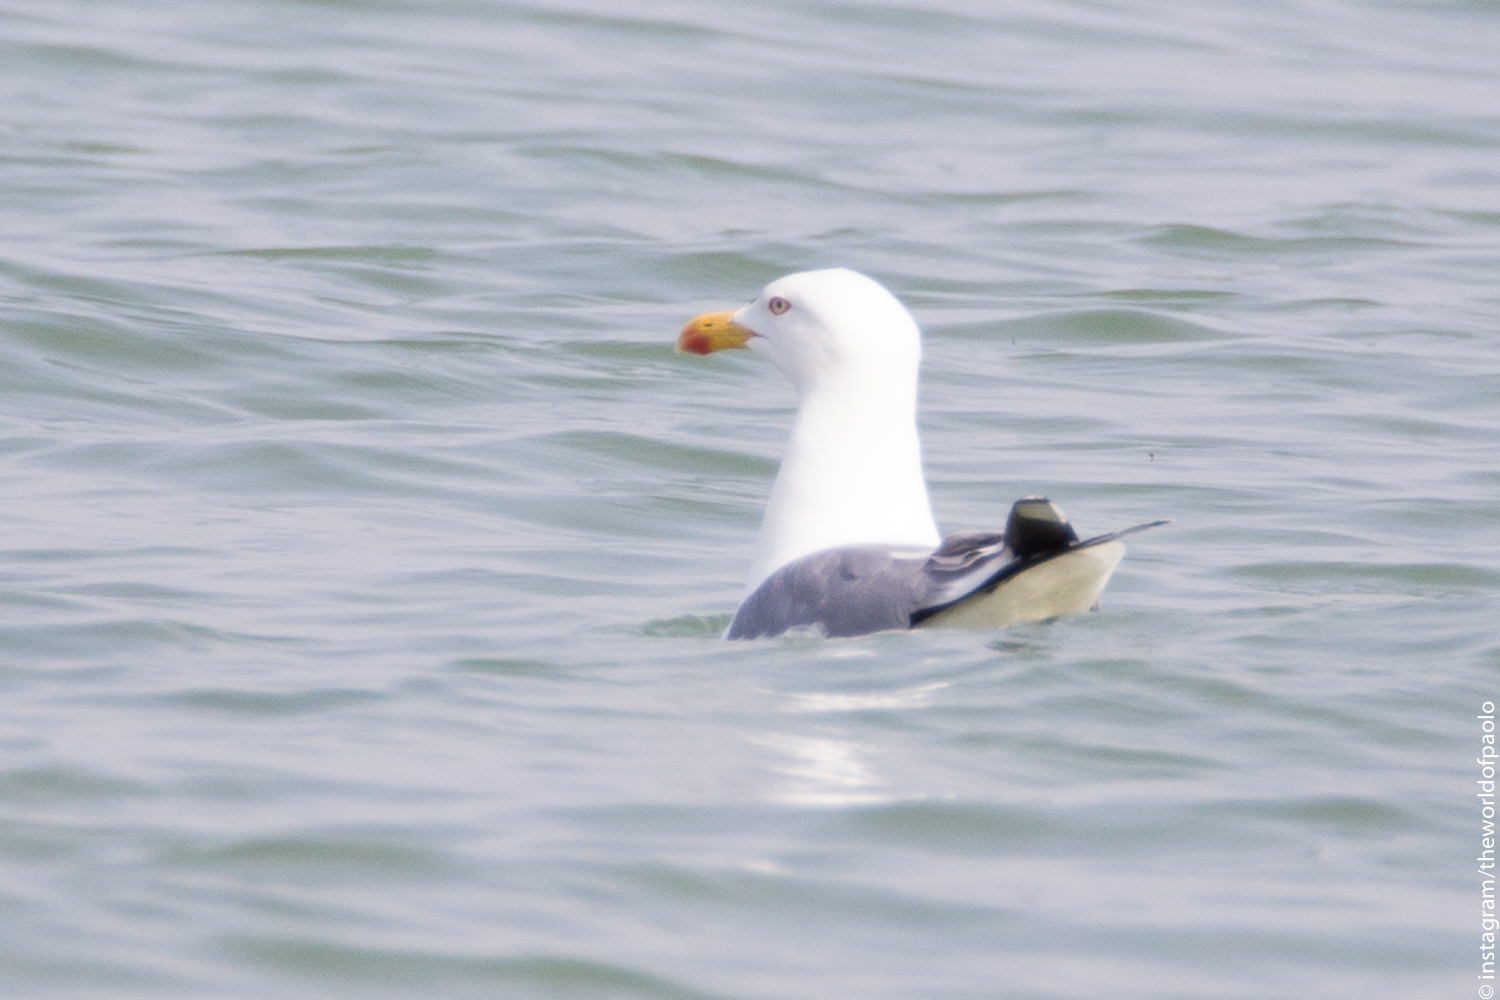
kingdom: Animalia
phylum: Chordata
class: Aves
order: Charadriiformes
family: Laridae
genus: Larus
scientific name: Larus michahellis
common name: Yellow-legged gull
